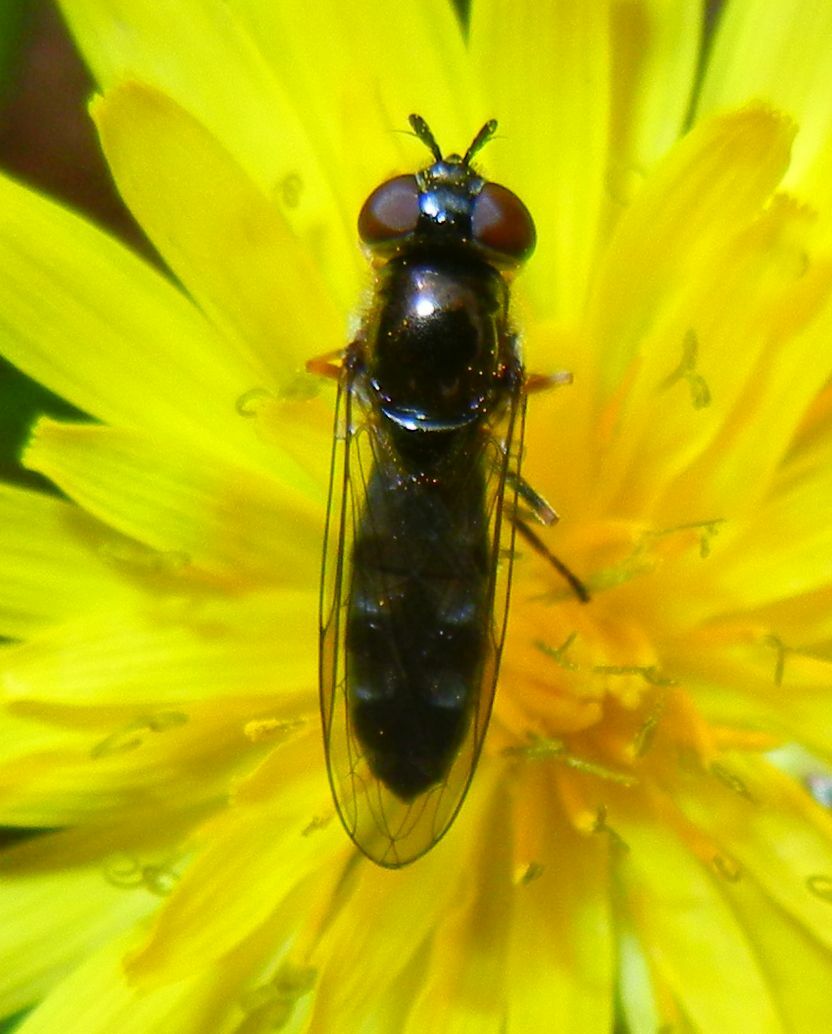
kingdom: Animalia
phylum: Arthropoda
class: Insecta
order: Diptera
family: Syrphidae
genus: Platycheirus
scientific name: Platycheirus albimanus
